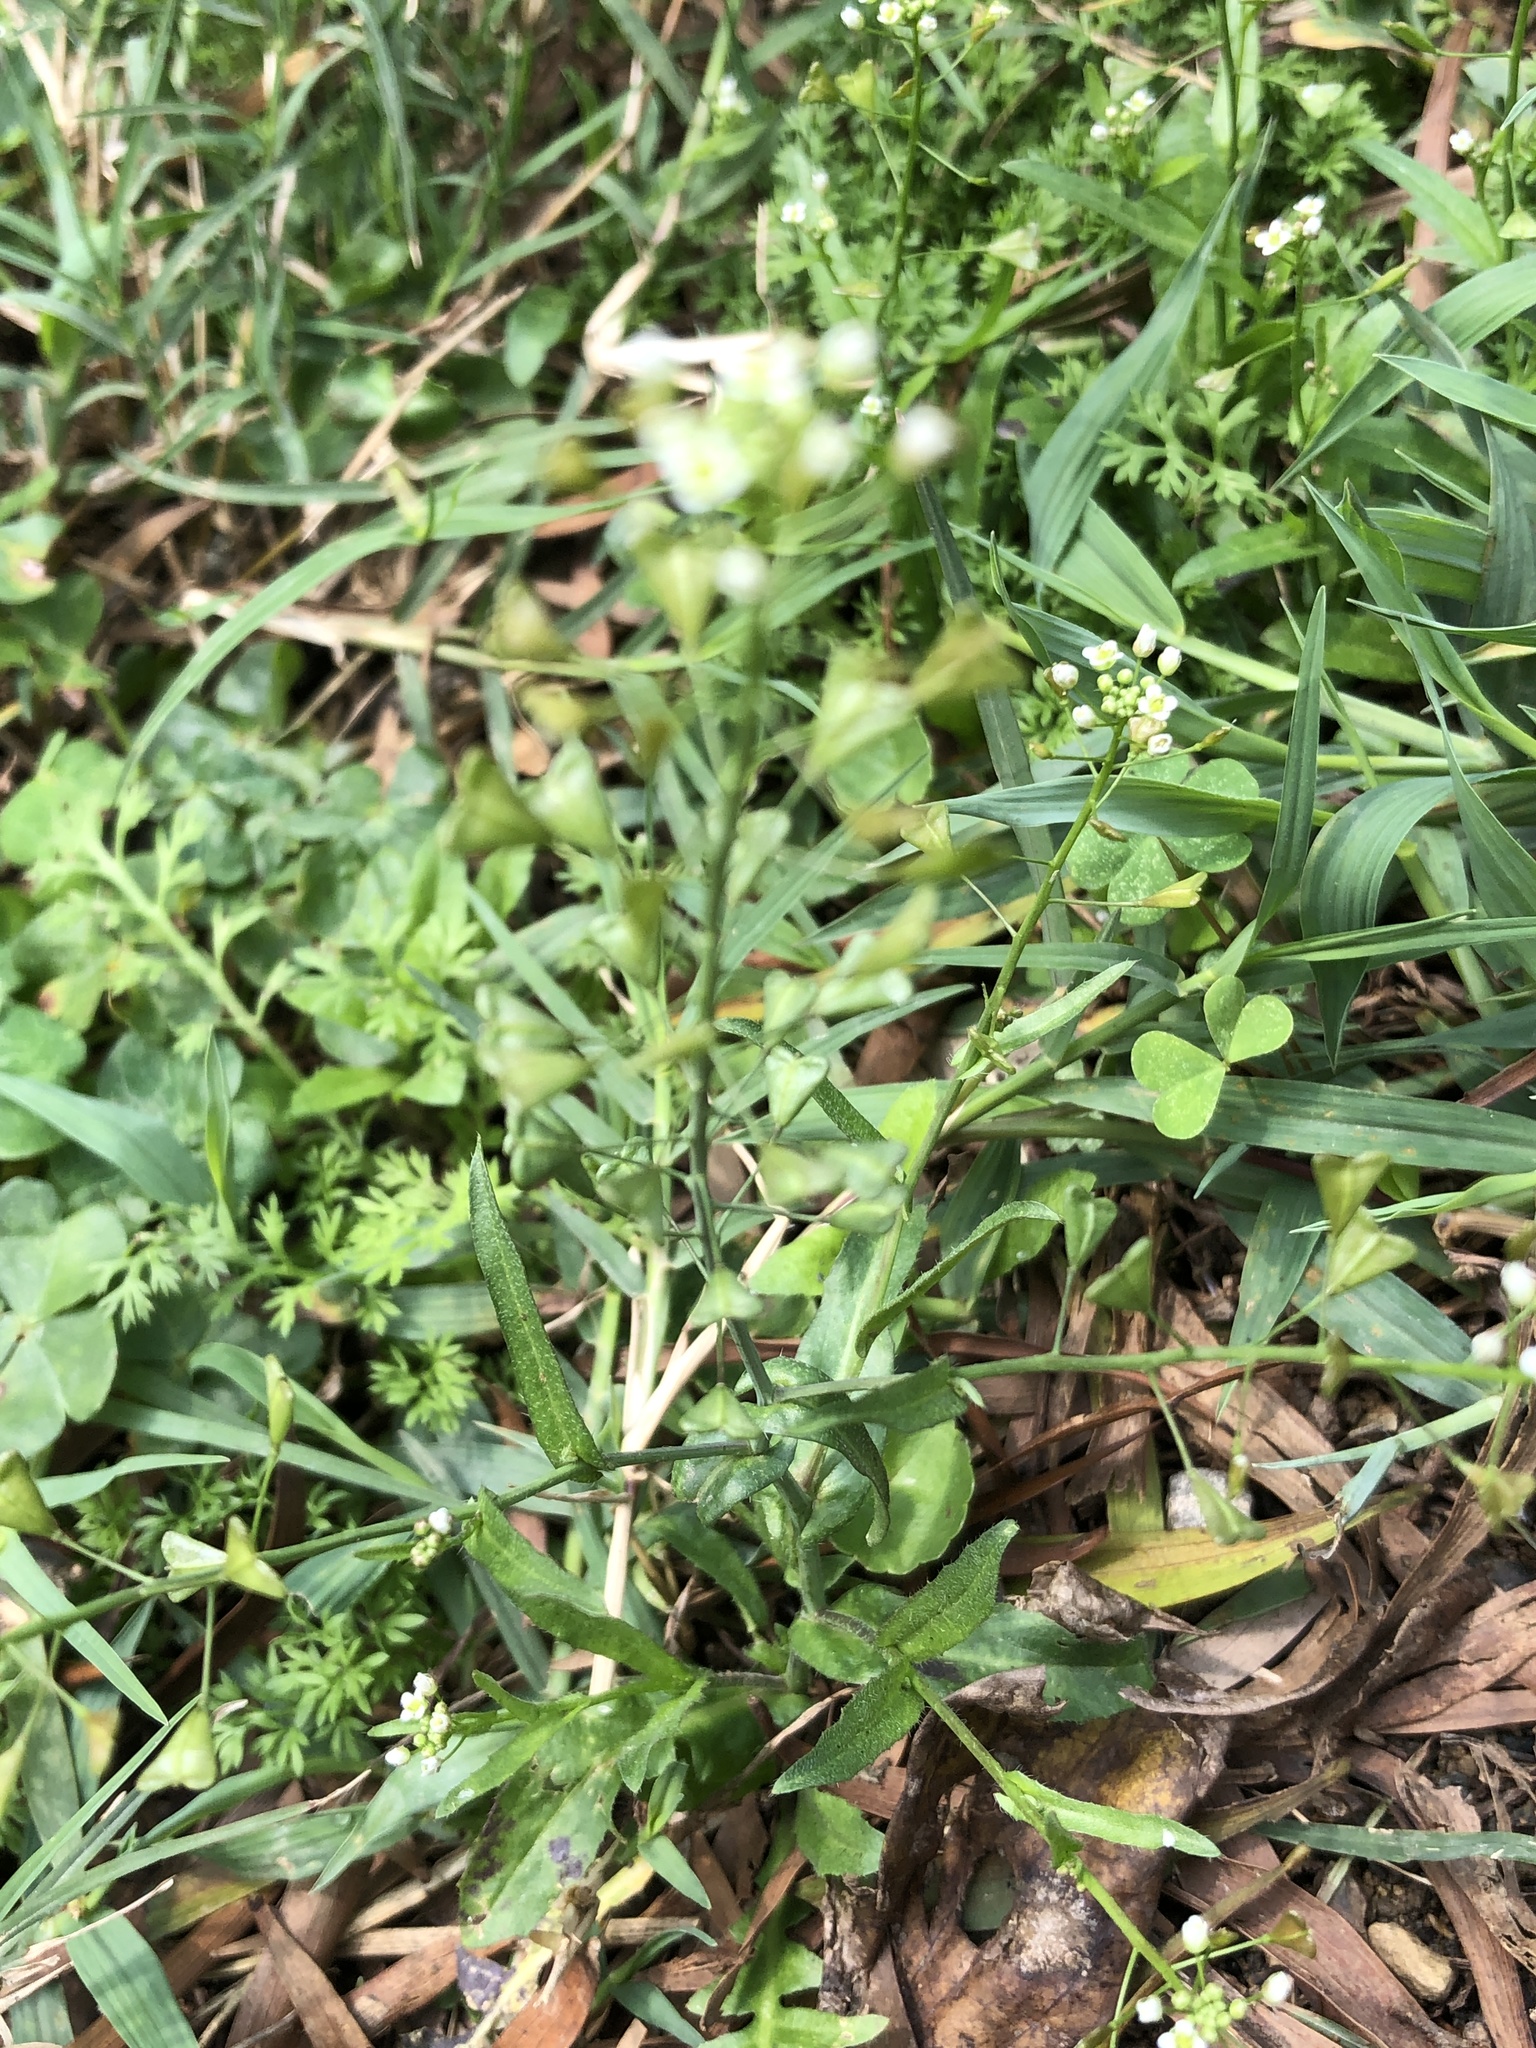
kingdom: Plantae
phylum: Tracheophyta
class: Magnoliopsida
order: Brassicales
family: Brassicaceae
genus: Capsella
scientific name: Capsella bursa-pastoris
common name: Shepherd's purse
